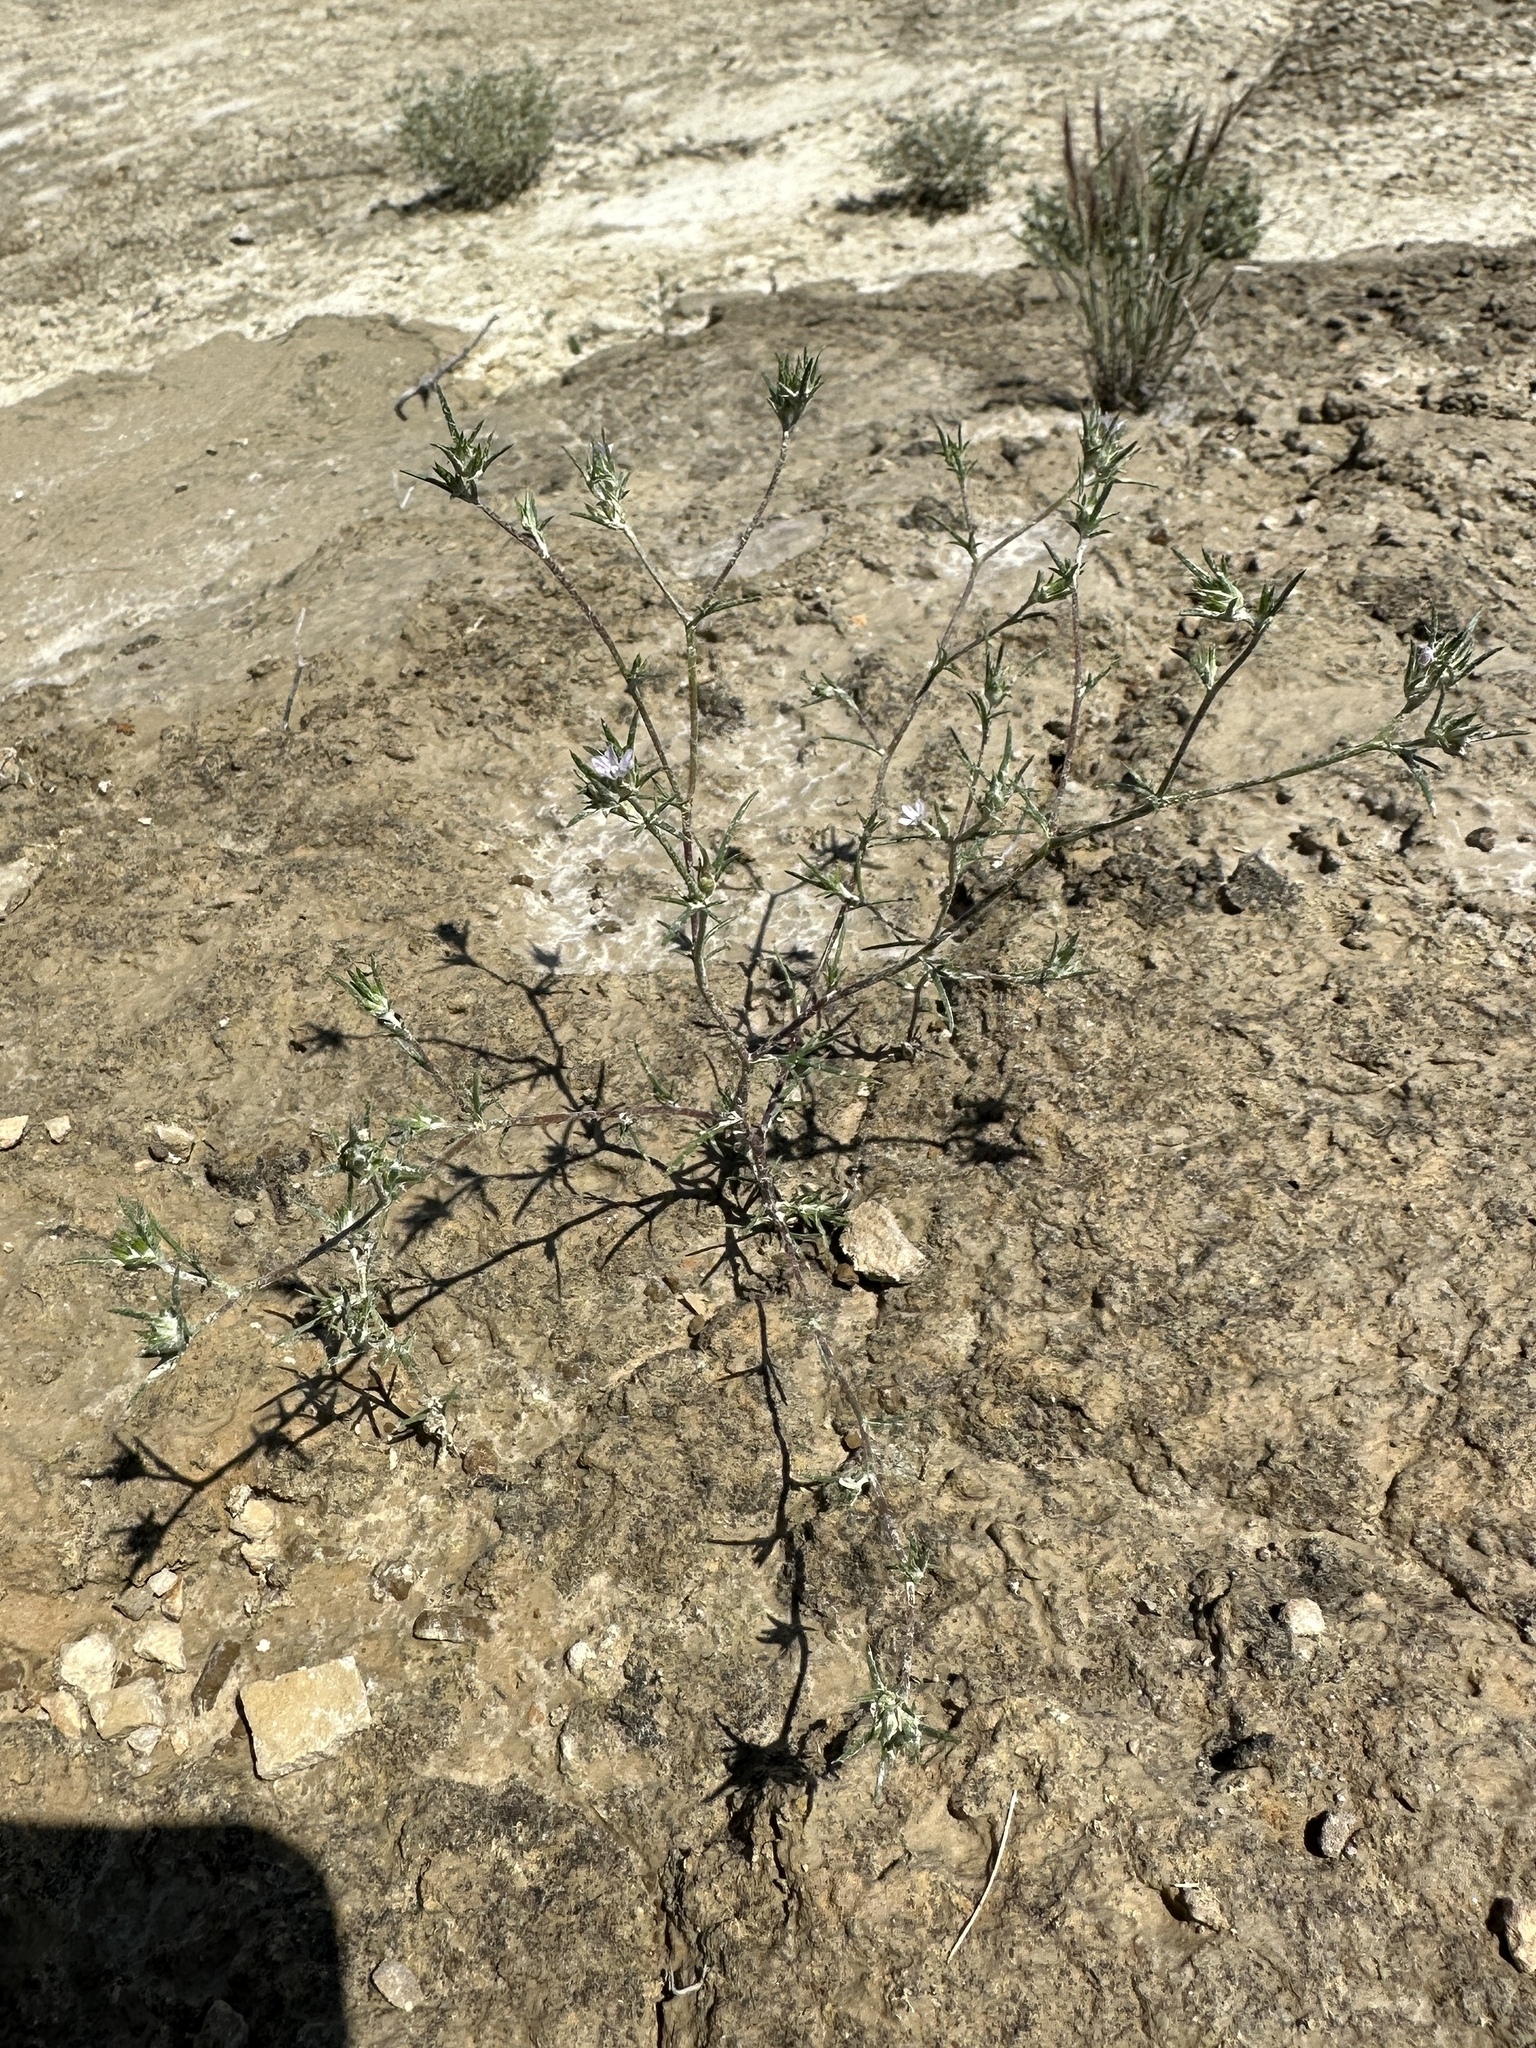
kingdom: Plantae
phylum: Tracheophyta
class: Magnoliopsida
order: Ericales
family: Polemoniaceae
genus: Eriastrum
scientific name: Eriastrum wilcoxii
